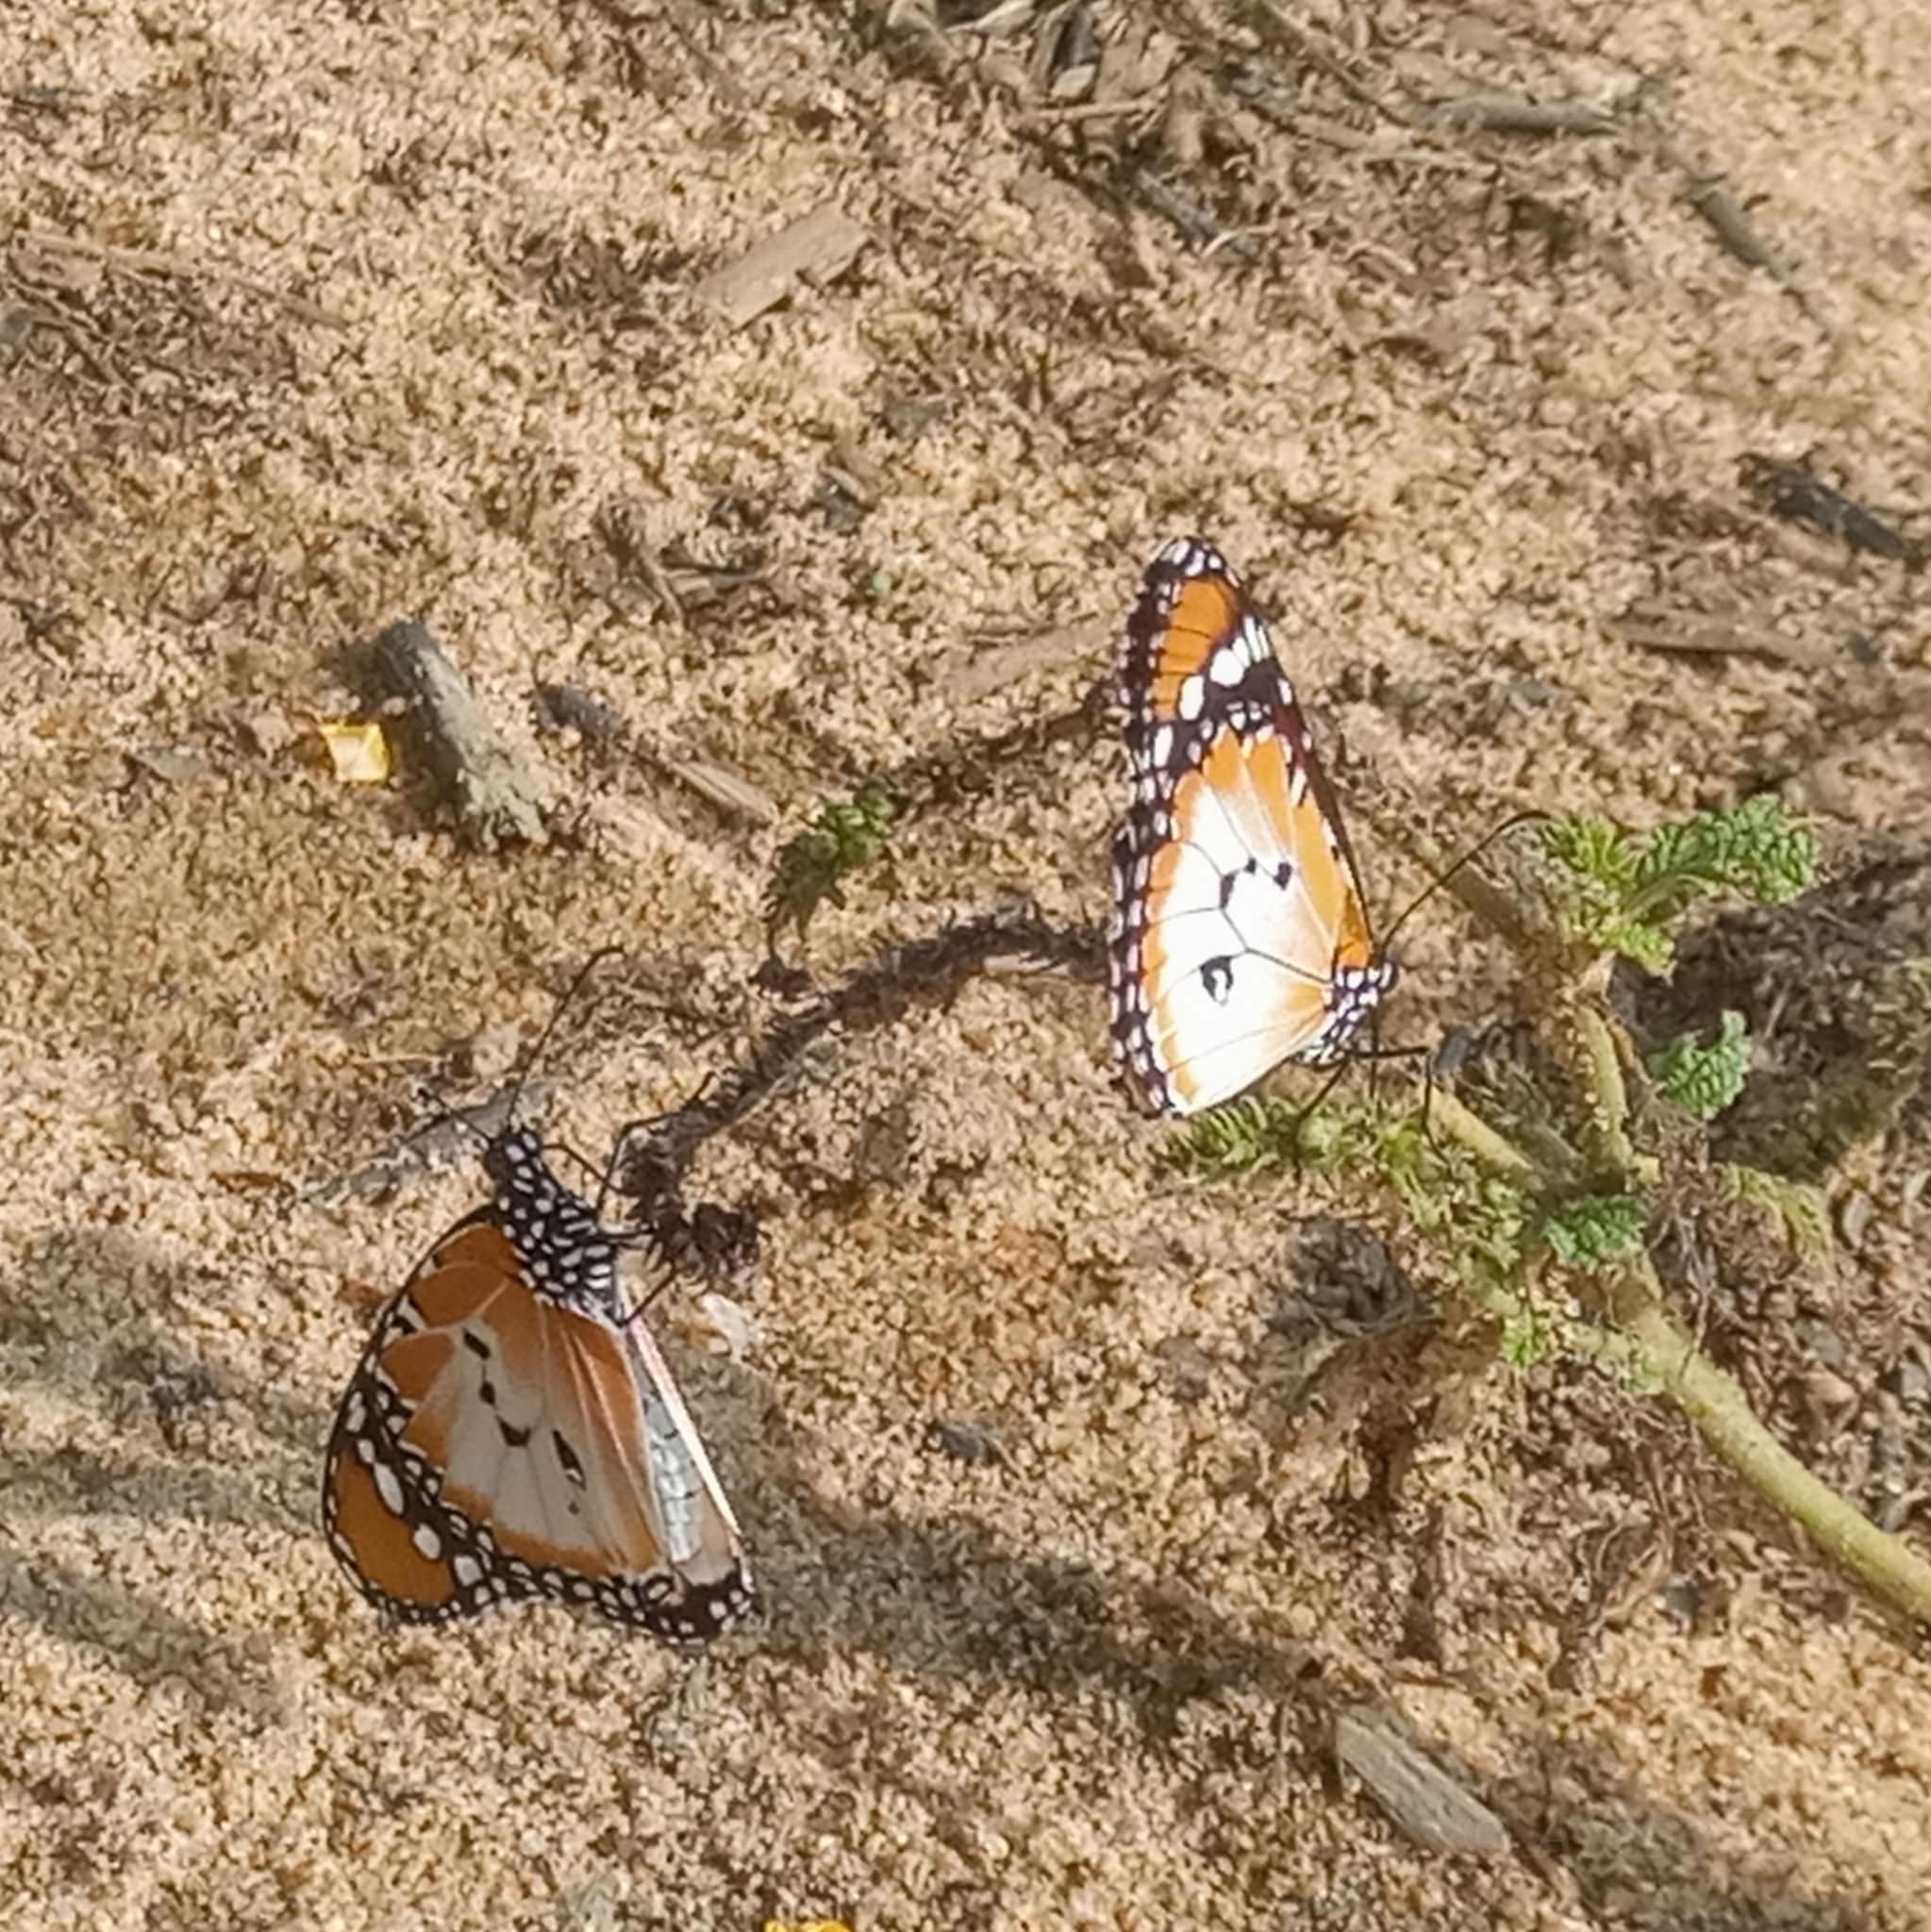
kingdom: Animalia
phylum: Arthropoda
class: Insecta
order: Lepidoptera
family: Nymphalidae
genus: Danaus
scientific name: Danaus chrysippus
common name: Plain tiger
